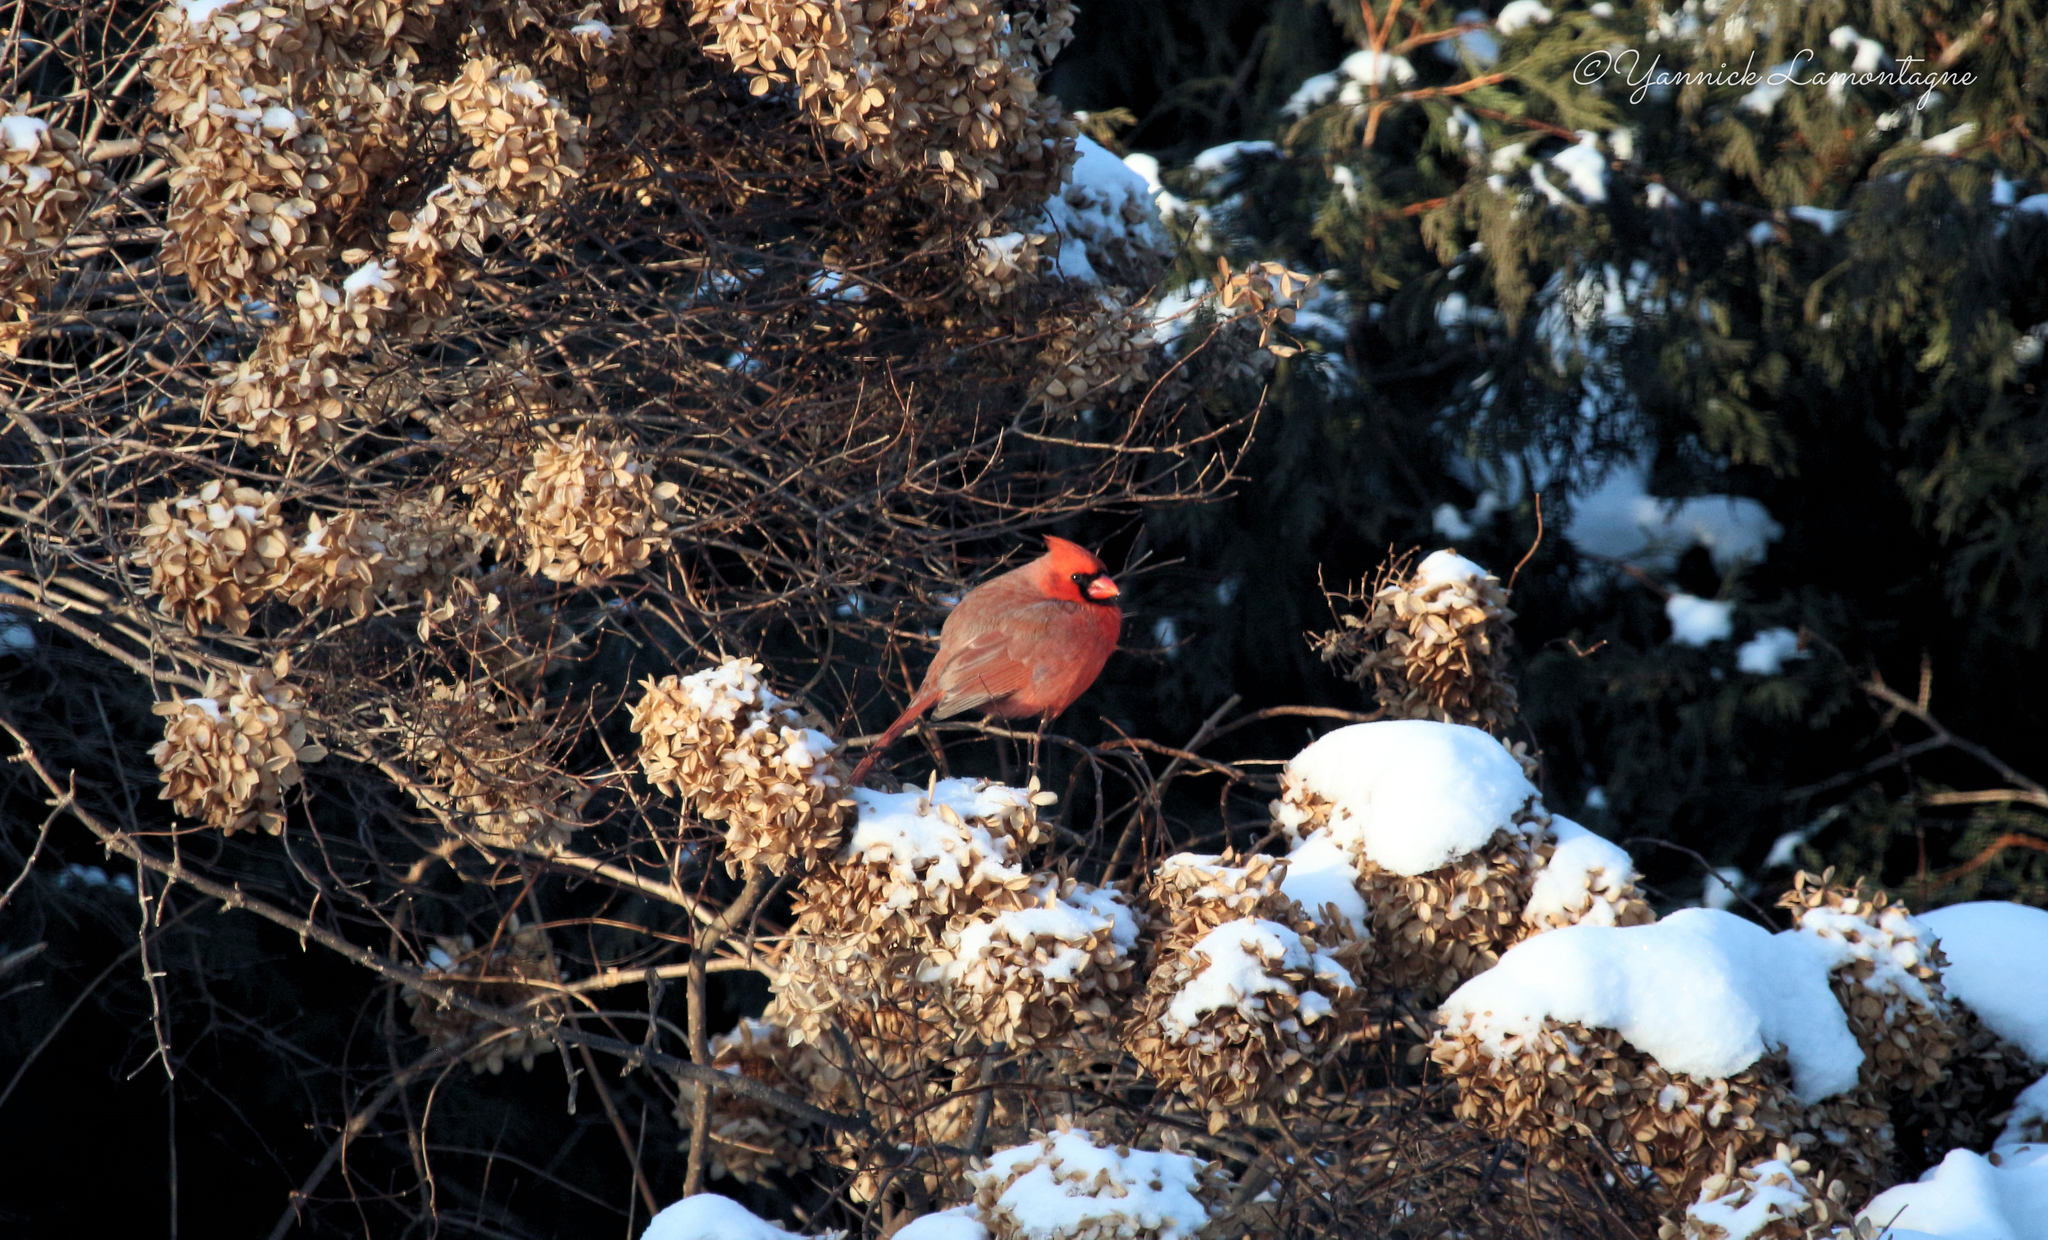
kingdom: Animalia
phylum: Chordata
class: Aves
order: Passeriformes
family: Cardinalidae
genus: Cardinalis
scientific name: Cardinalis cardinalis
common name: Northern cardinal
